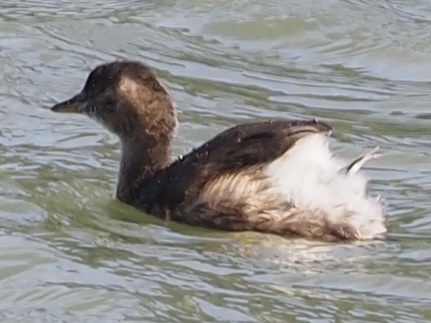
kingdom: Animalia
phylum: Chordata
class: Aves
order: Podicipediformes
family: Podicipedidae
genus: Tachybaptus
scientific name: Tachybaptus ruficollis
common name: Little grebe
